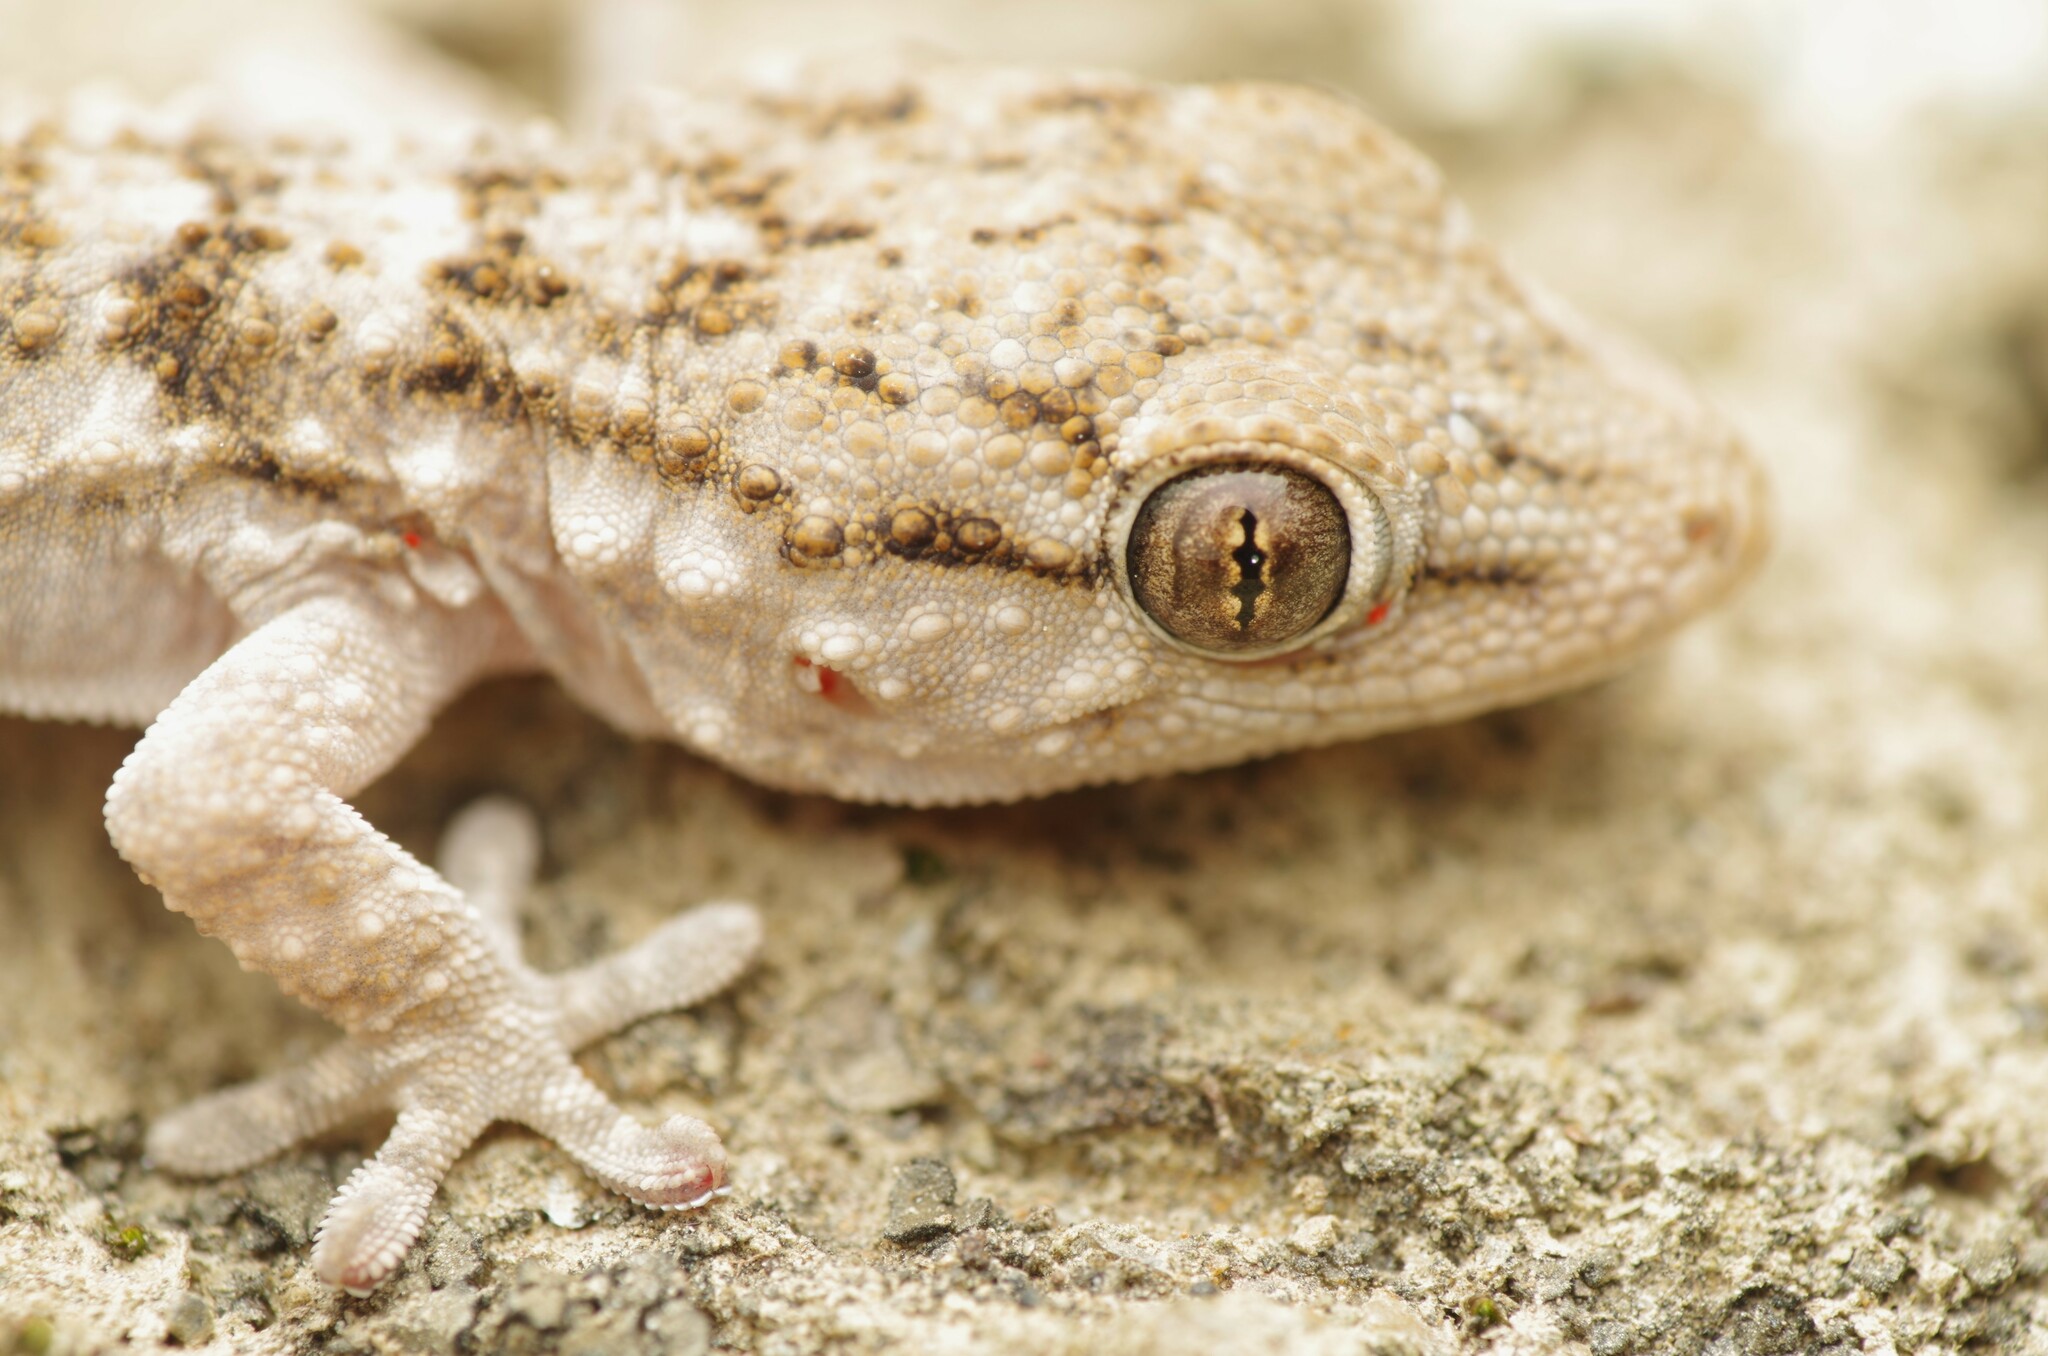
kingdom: Animalia
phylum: Chordata
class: Squamata
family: Phyllodactylidae
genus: Tarentola
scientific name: Tarentola mauritanica
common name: Moorish gecko
